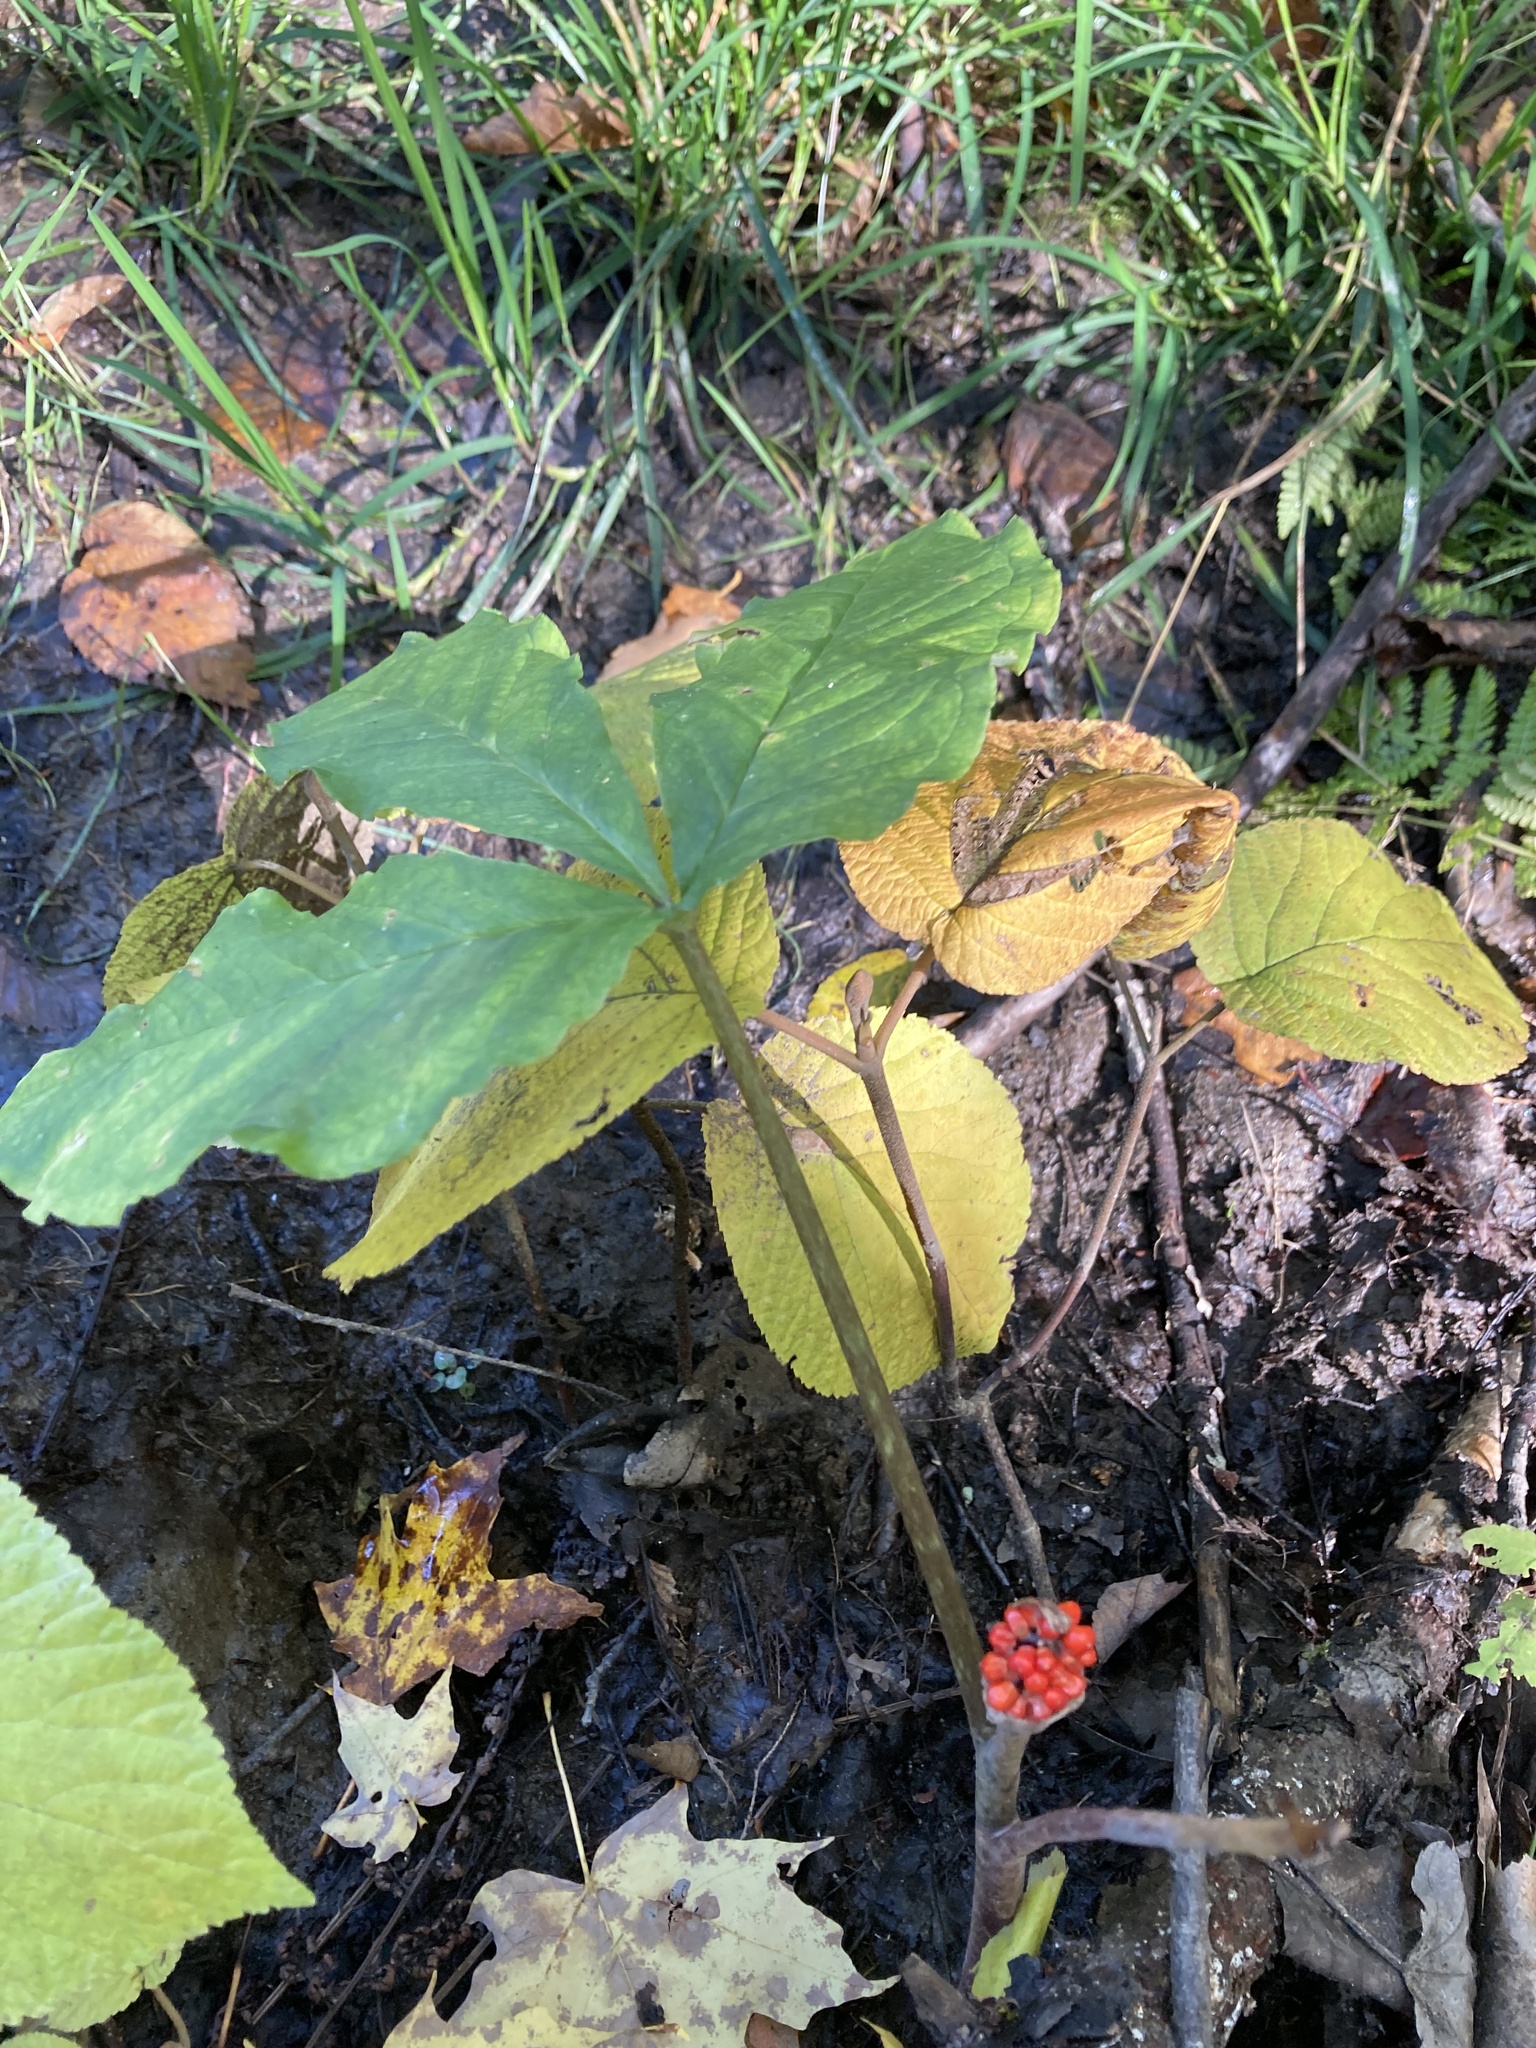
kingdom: Plantae
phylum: Tracheophyta
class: Liliopsida
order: Alismatales
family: Araceae
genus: Arisaema
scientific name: Arisaema triphyllum
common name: Jack-in-the-pulpit
